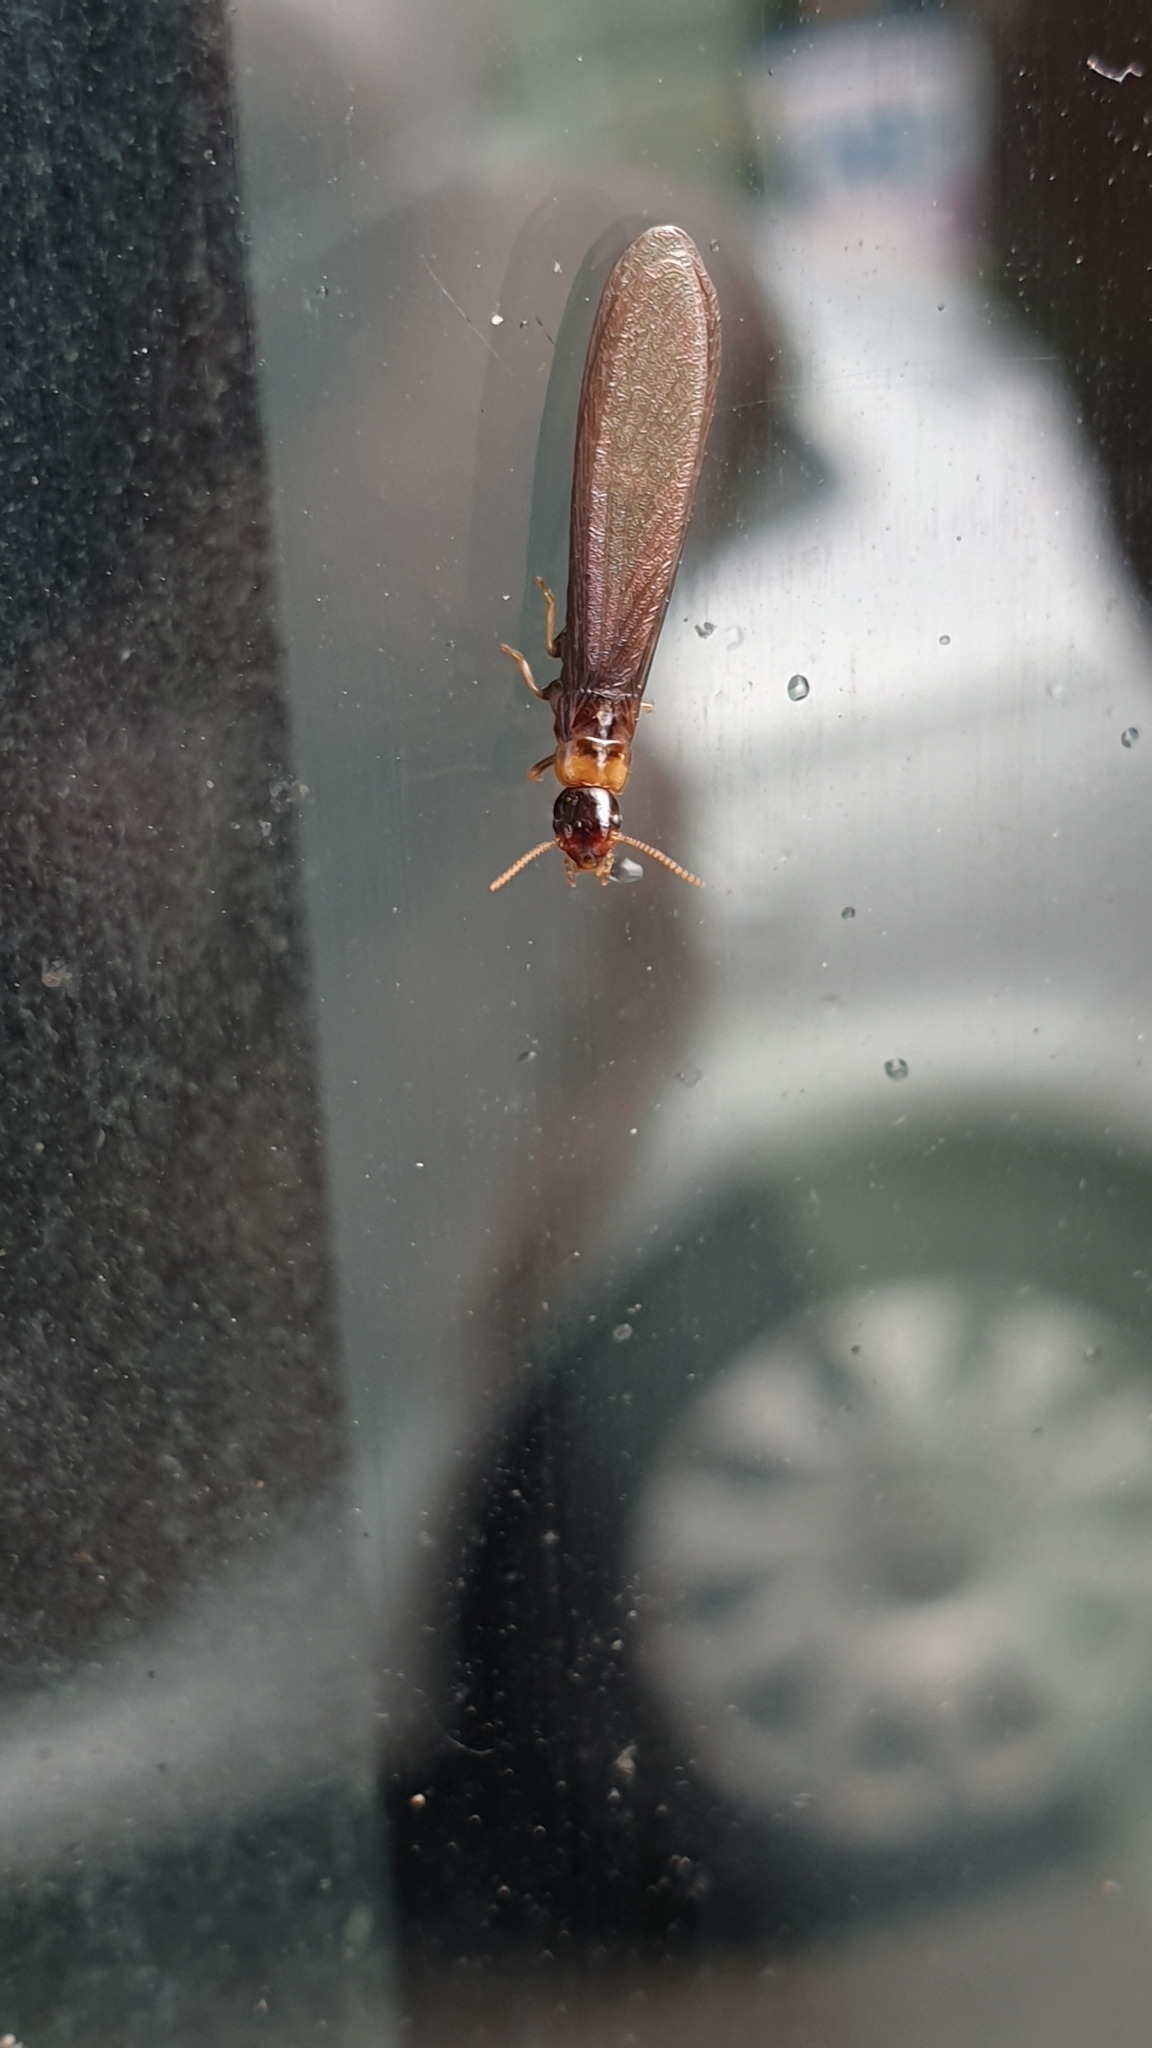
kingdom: Animalia
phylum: Arthropoda
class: Insecta
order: Blattodea
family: Kalotermitidae
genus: Kalotermes
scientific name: Kalotermes flavicollis
